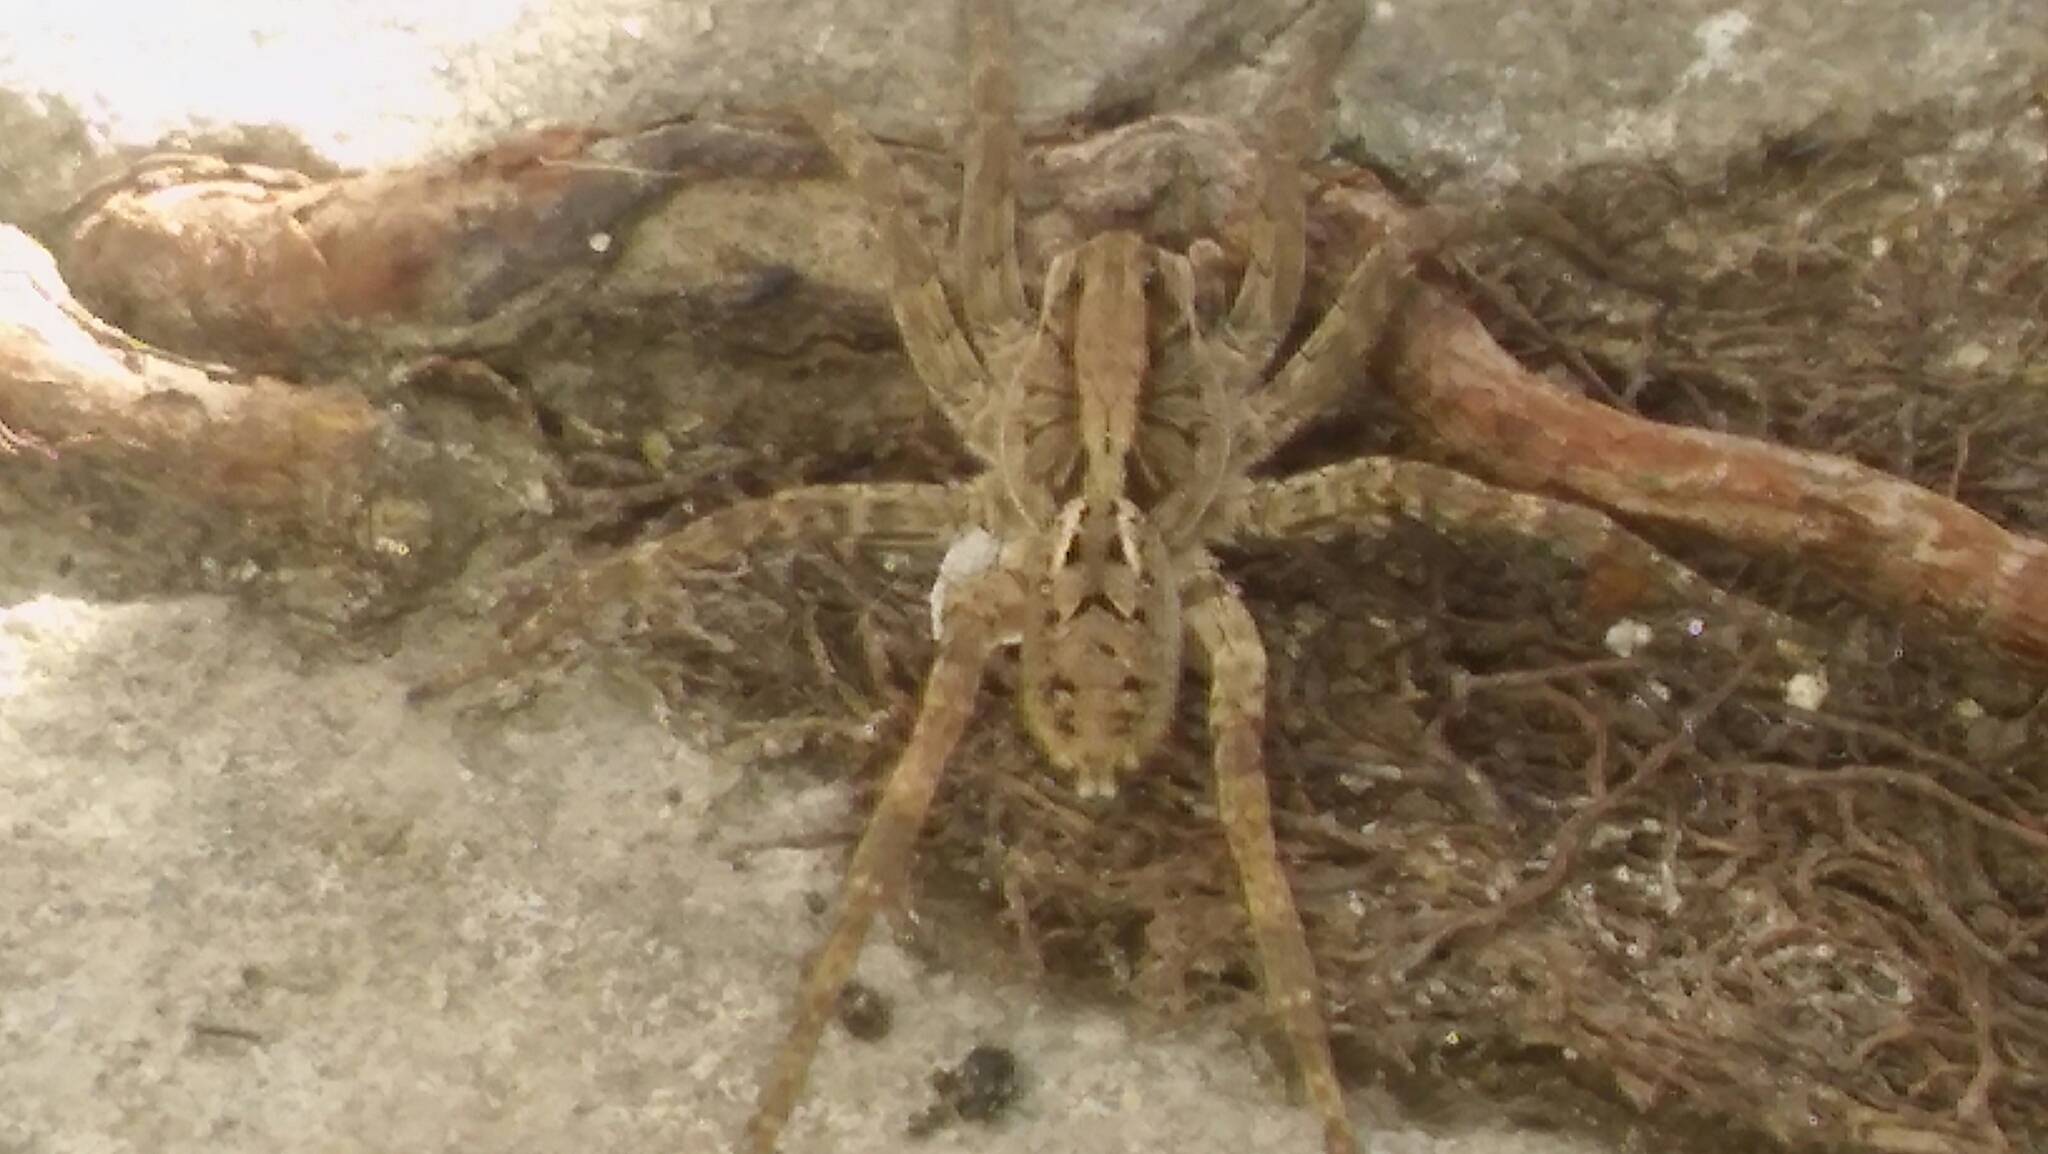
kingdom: Animalia
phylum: Arthropoda
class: Arachnida
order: Araneae
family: Lycosidae
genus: Lycosa
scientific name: Lycosa erythrognatha
